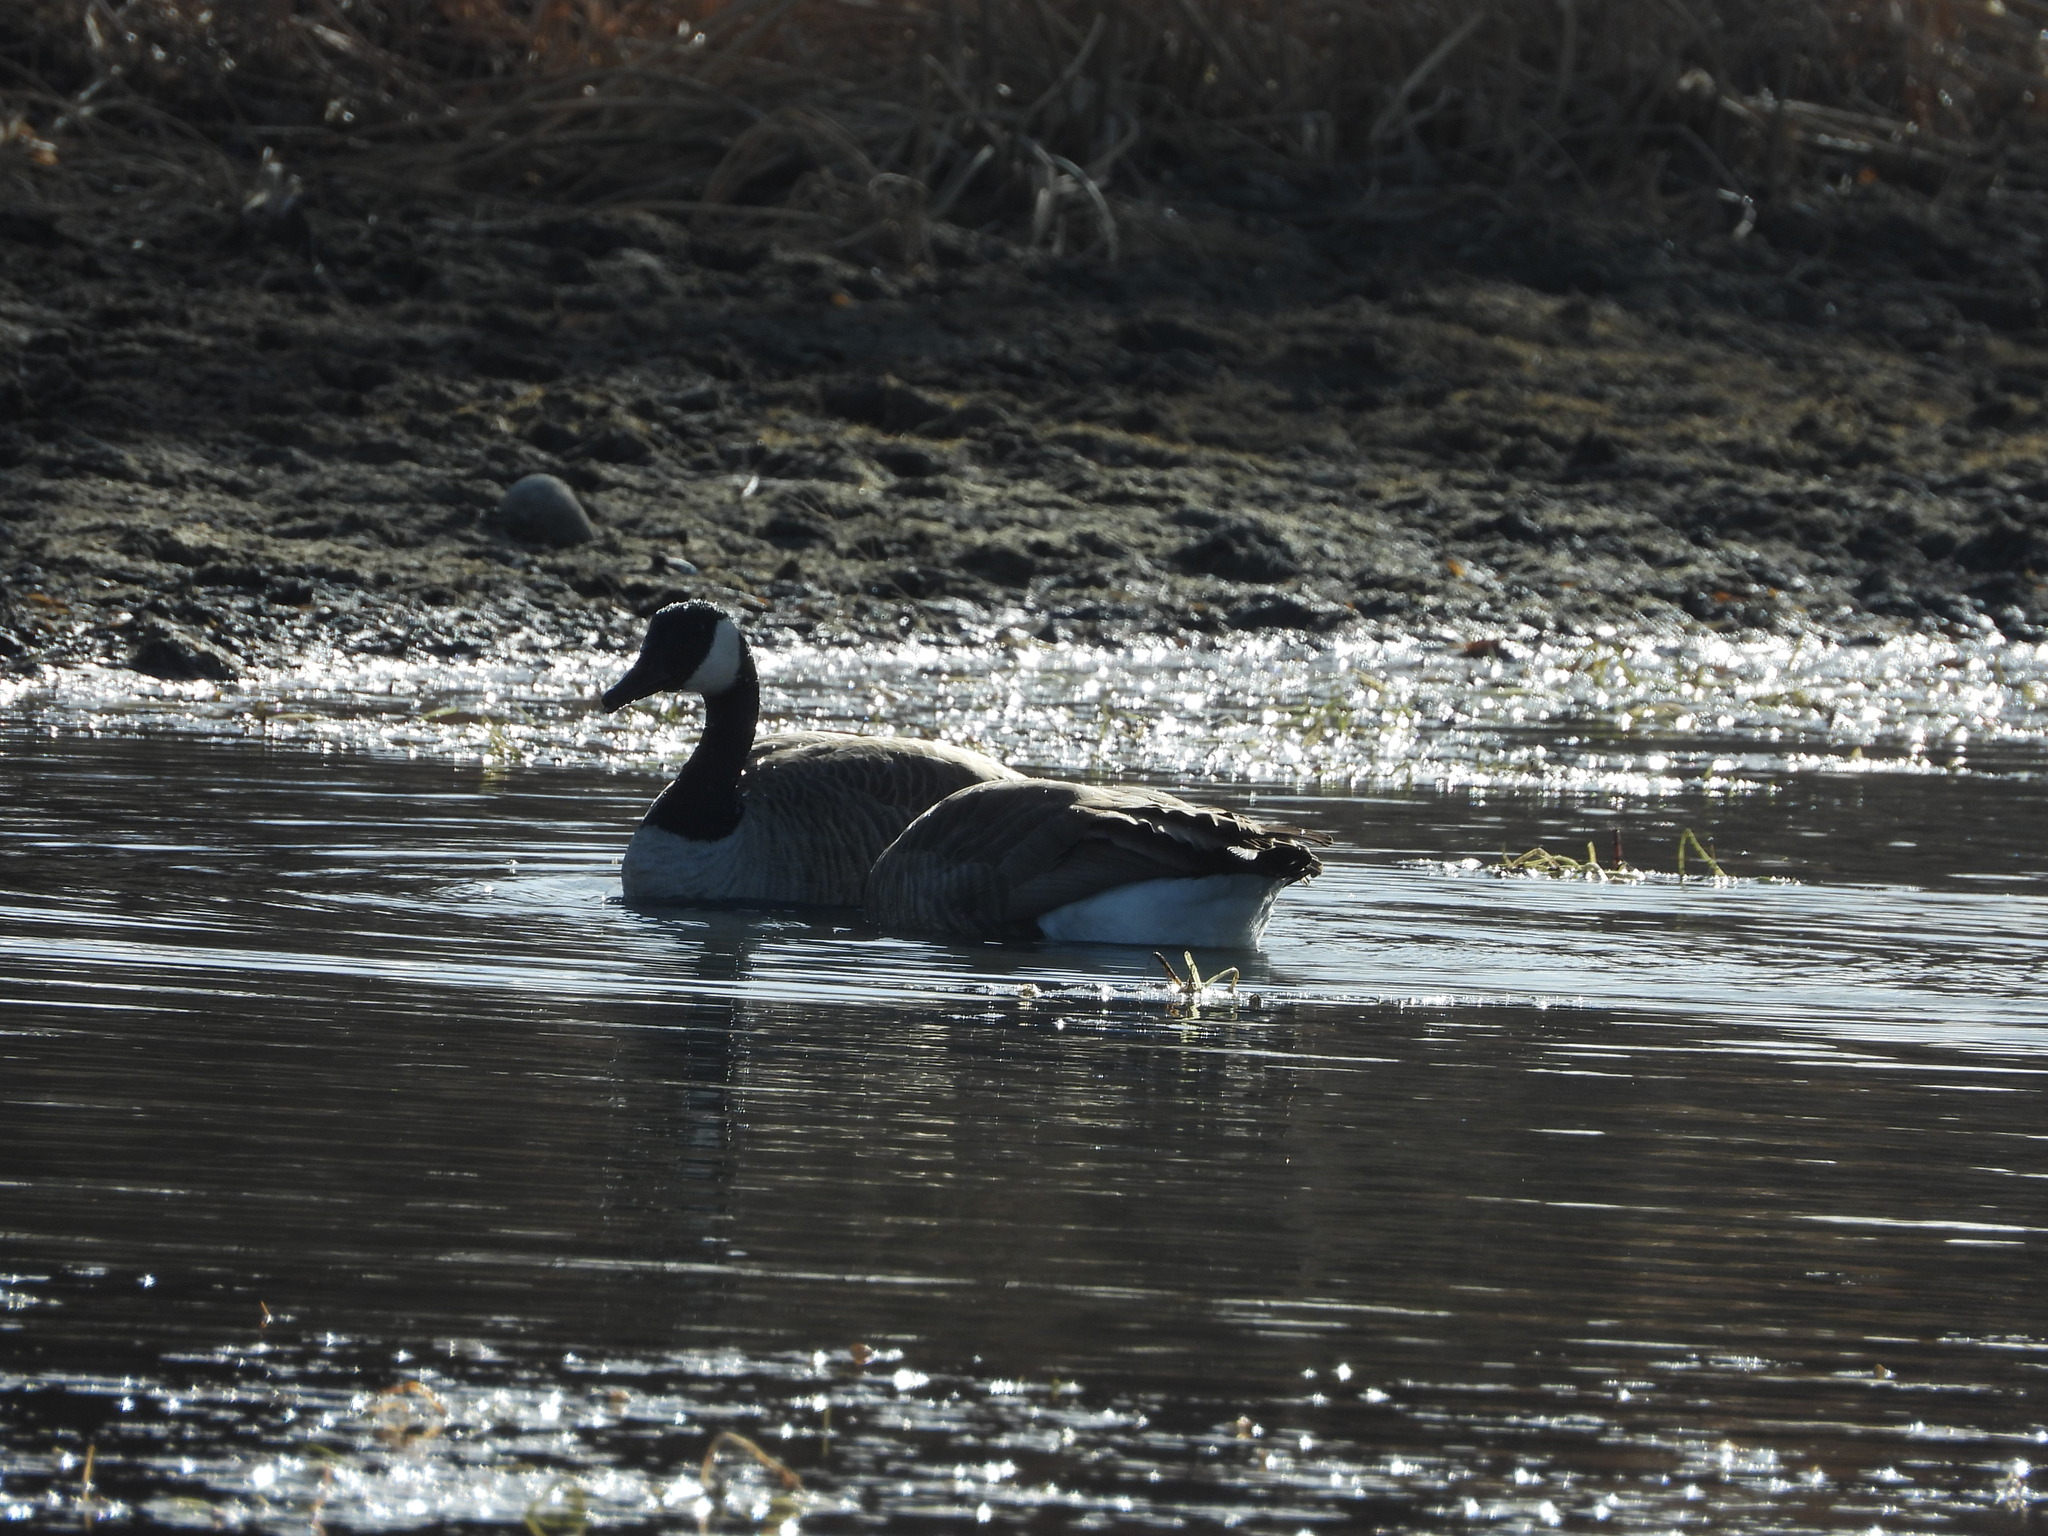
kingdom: Animalia
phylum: Chordata
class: Aves
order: Anseriformes
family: Anatidae
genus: Branta
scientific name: Branta canadensis
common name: Canada goose
